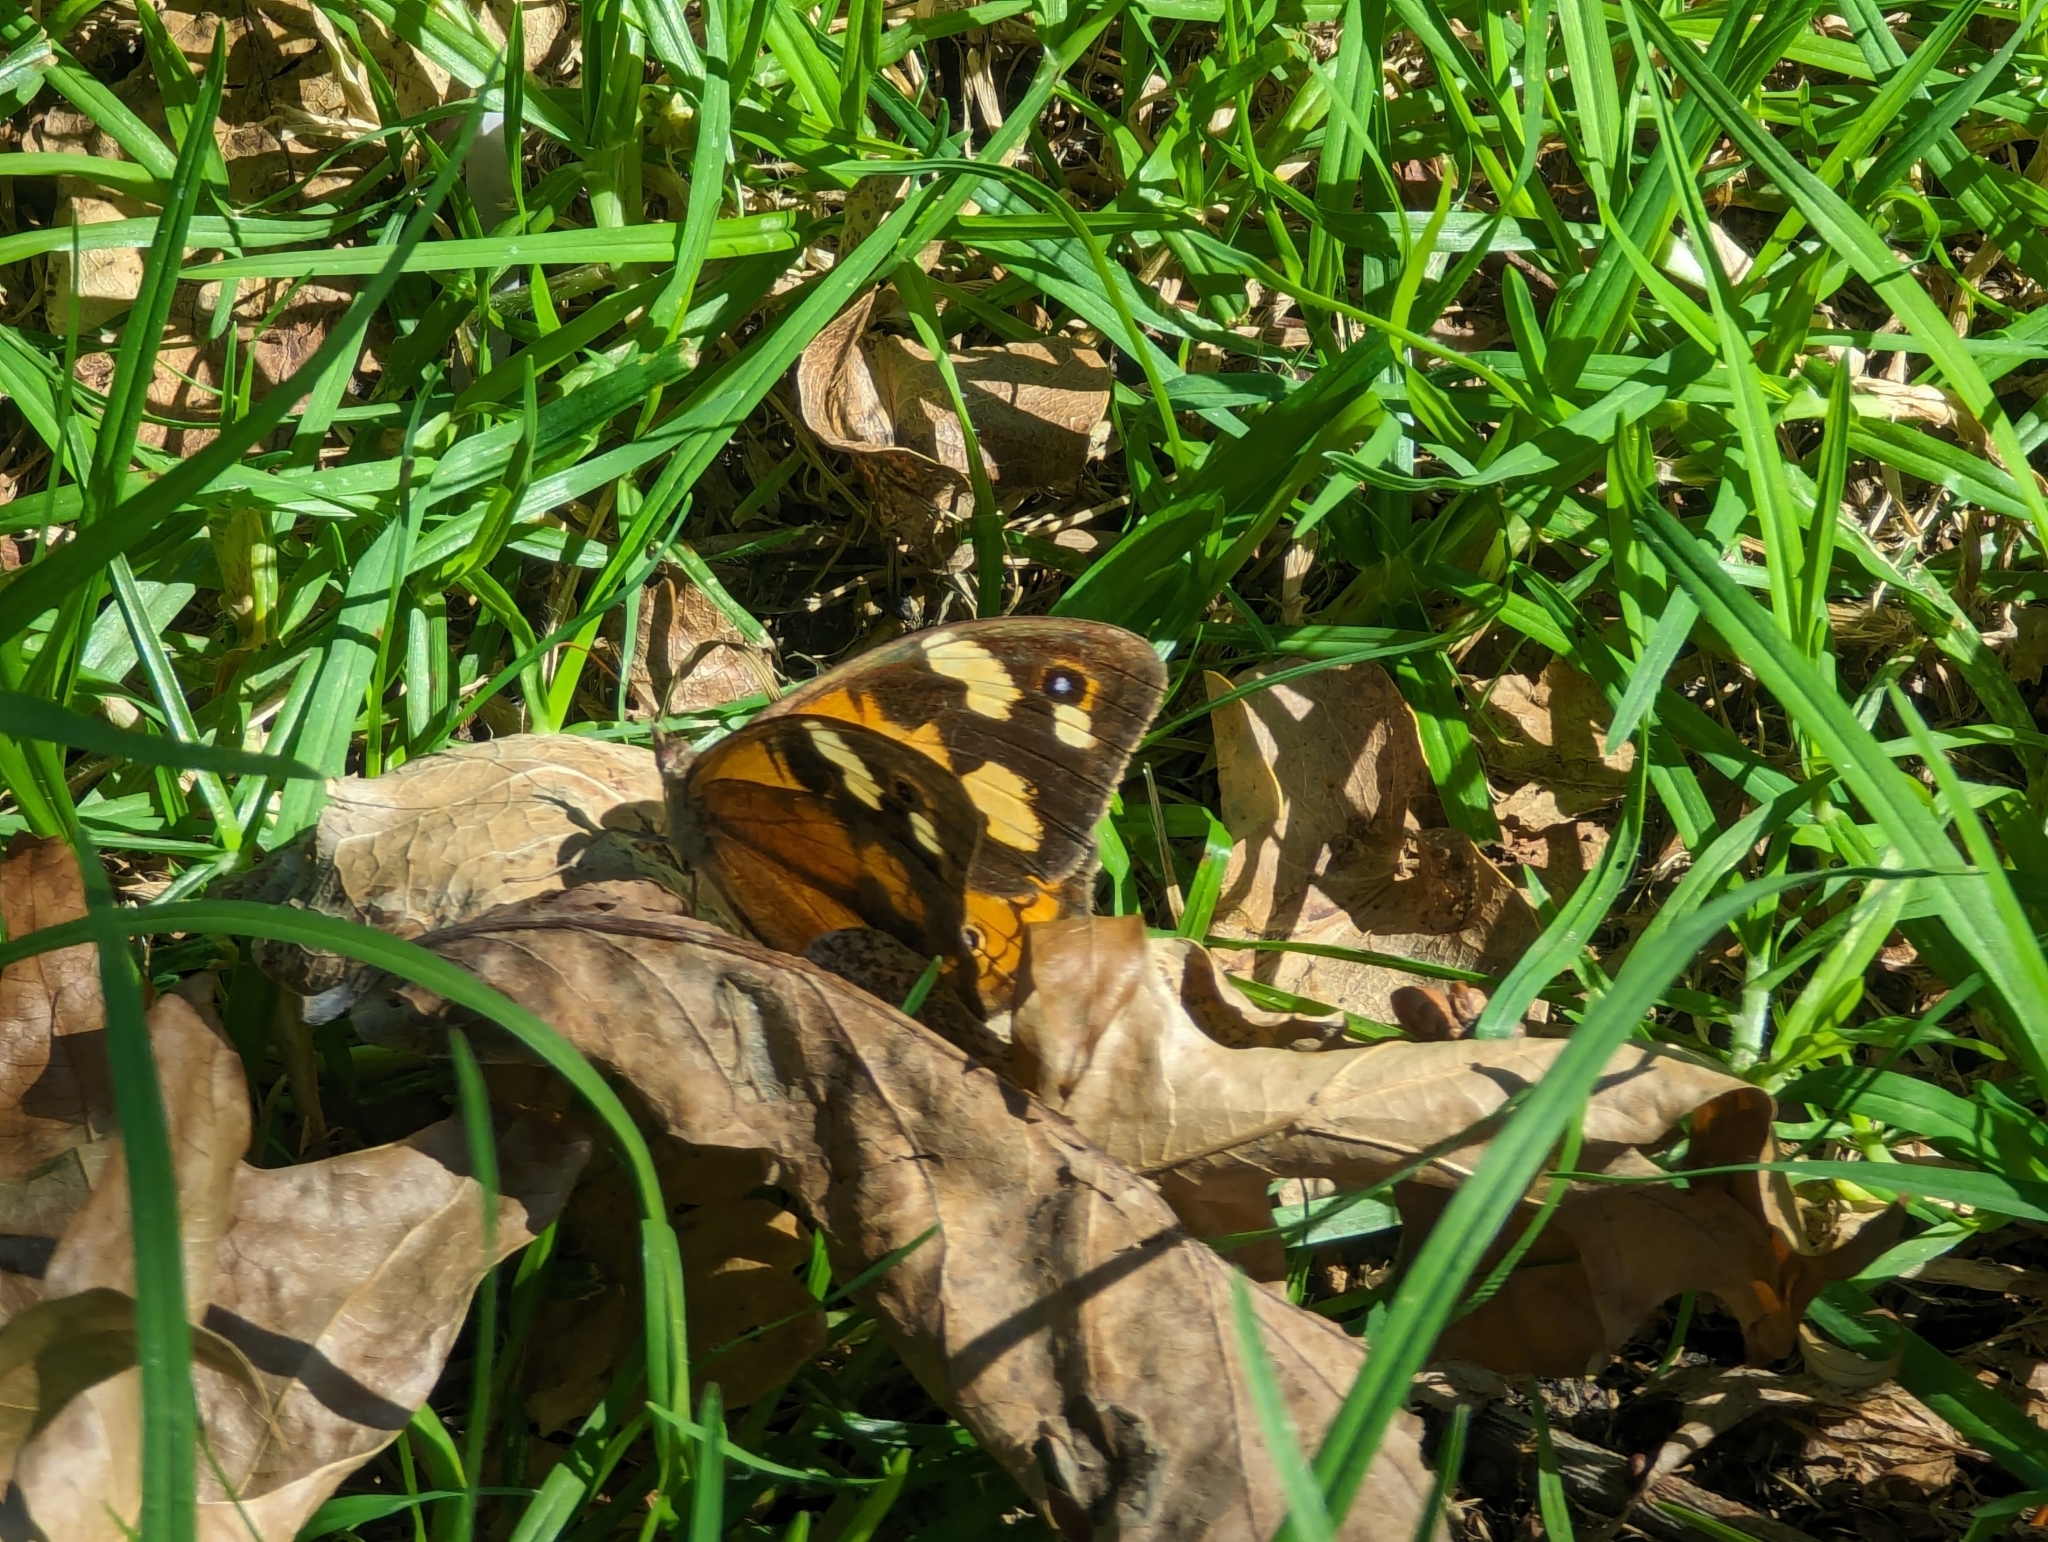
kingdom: Animalia
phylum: Arthropoda
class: Insecta
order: Lepidoptera
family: Nymphalidae
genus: Heteronympha
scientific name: Heteronympha merope
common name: Common brown
